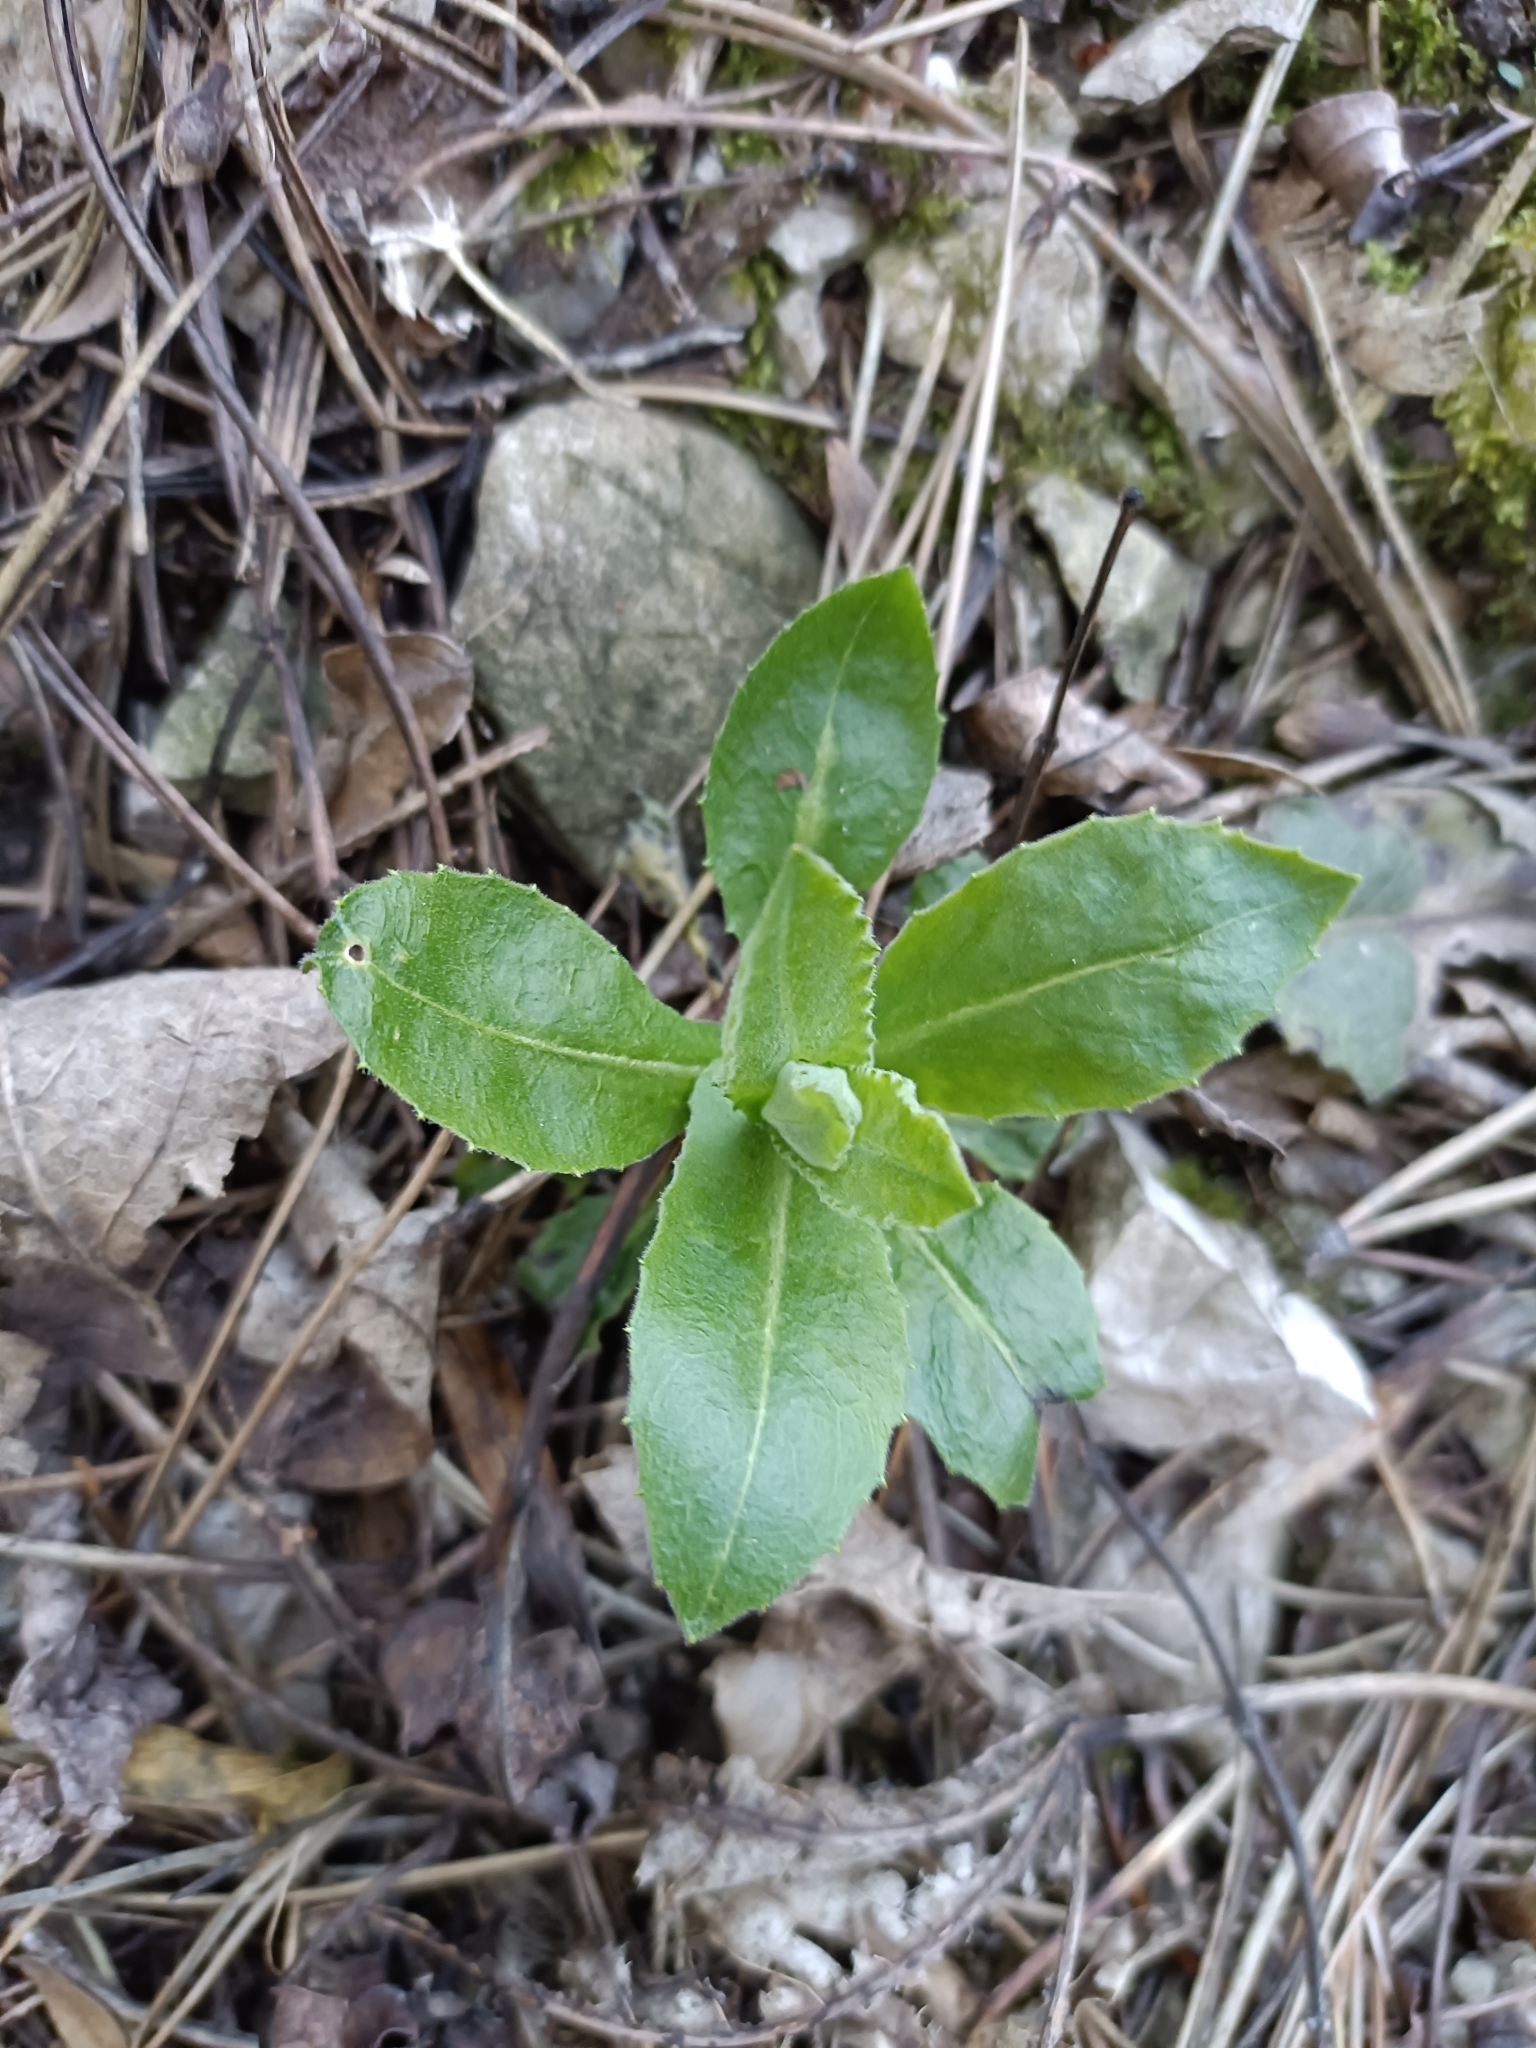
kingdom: Plantae
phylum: Tracheophyta
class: Magnoliopsida
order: Brassicales
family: Brassicaceae
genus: Pseudoturritis
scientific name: Pseudoturritis turrita
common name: Tower cress
